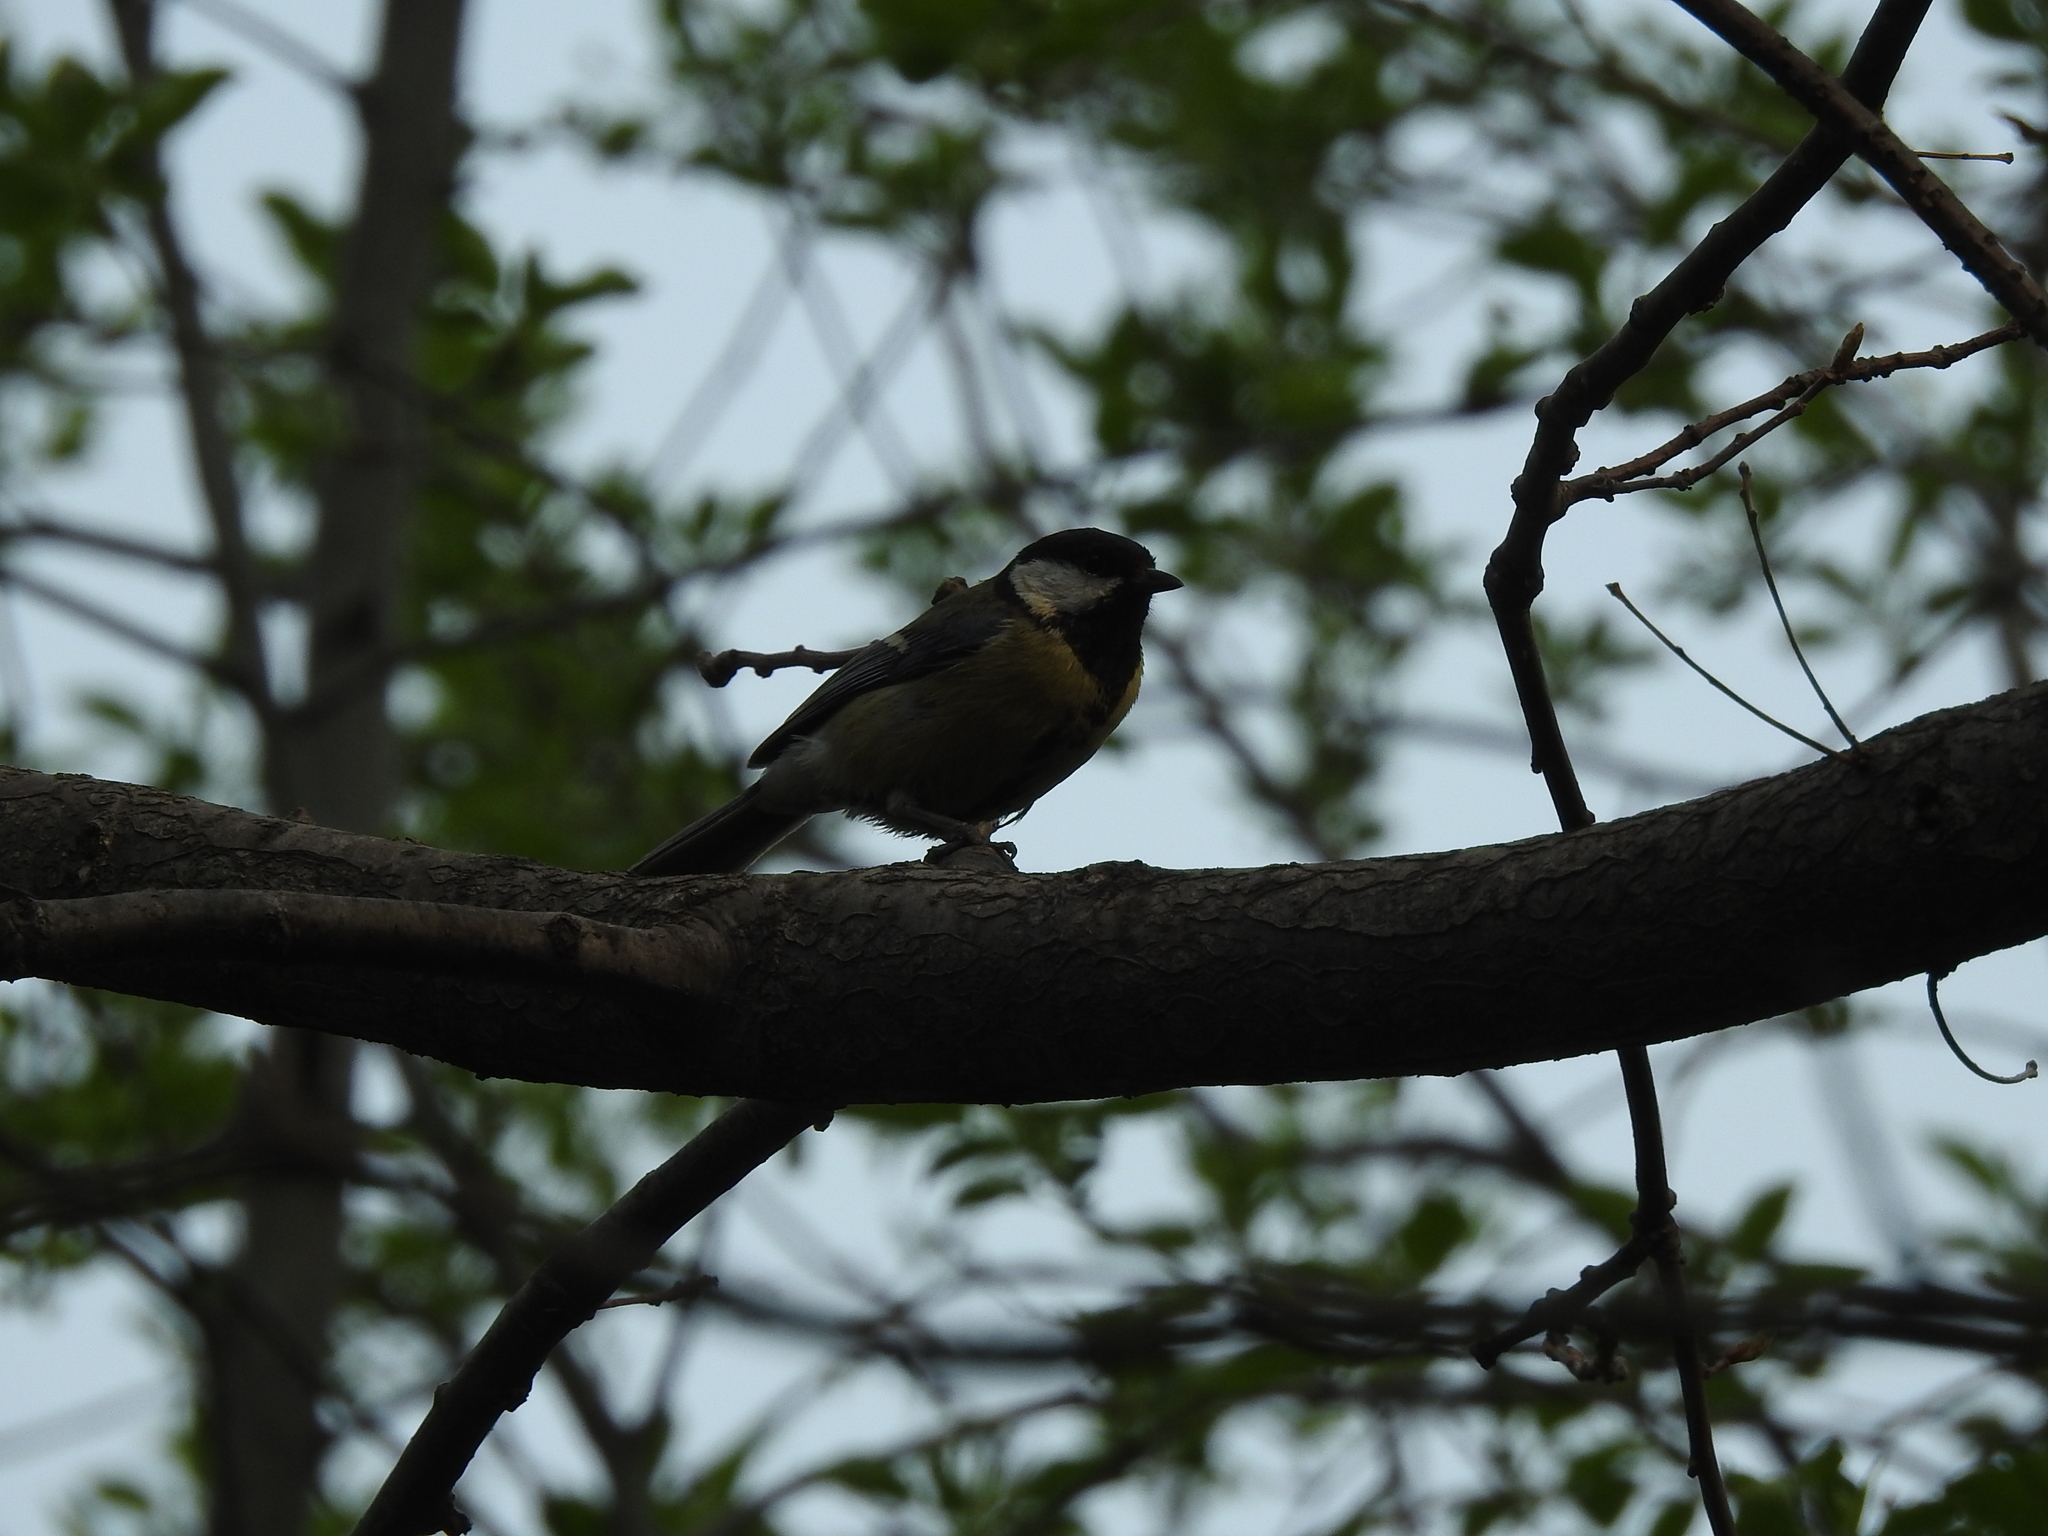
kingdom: Animalia
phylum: Chordata
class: Aves
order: Passeriformes
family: Paridae
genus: Parus
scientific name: Parus major
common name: Great tit
